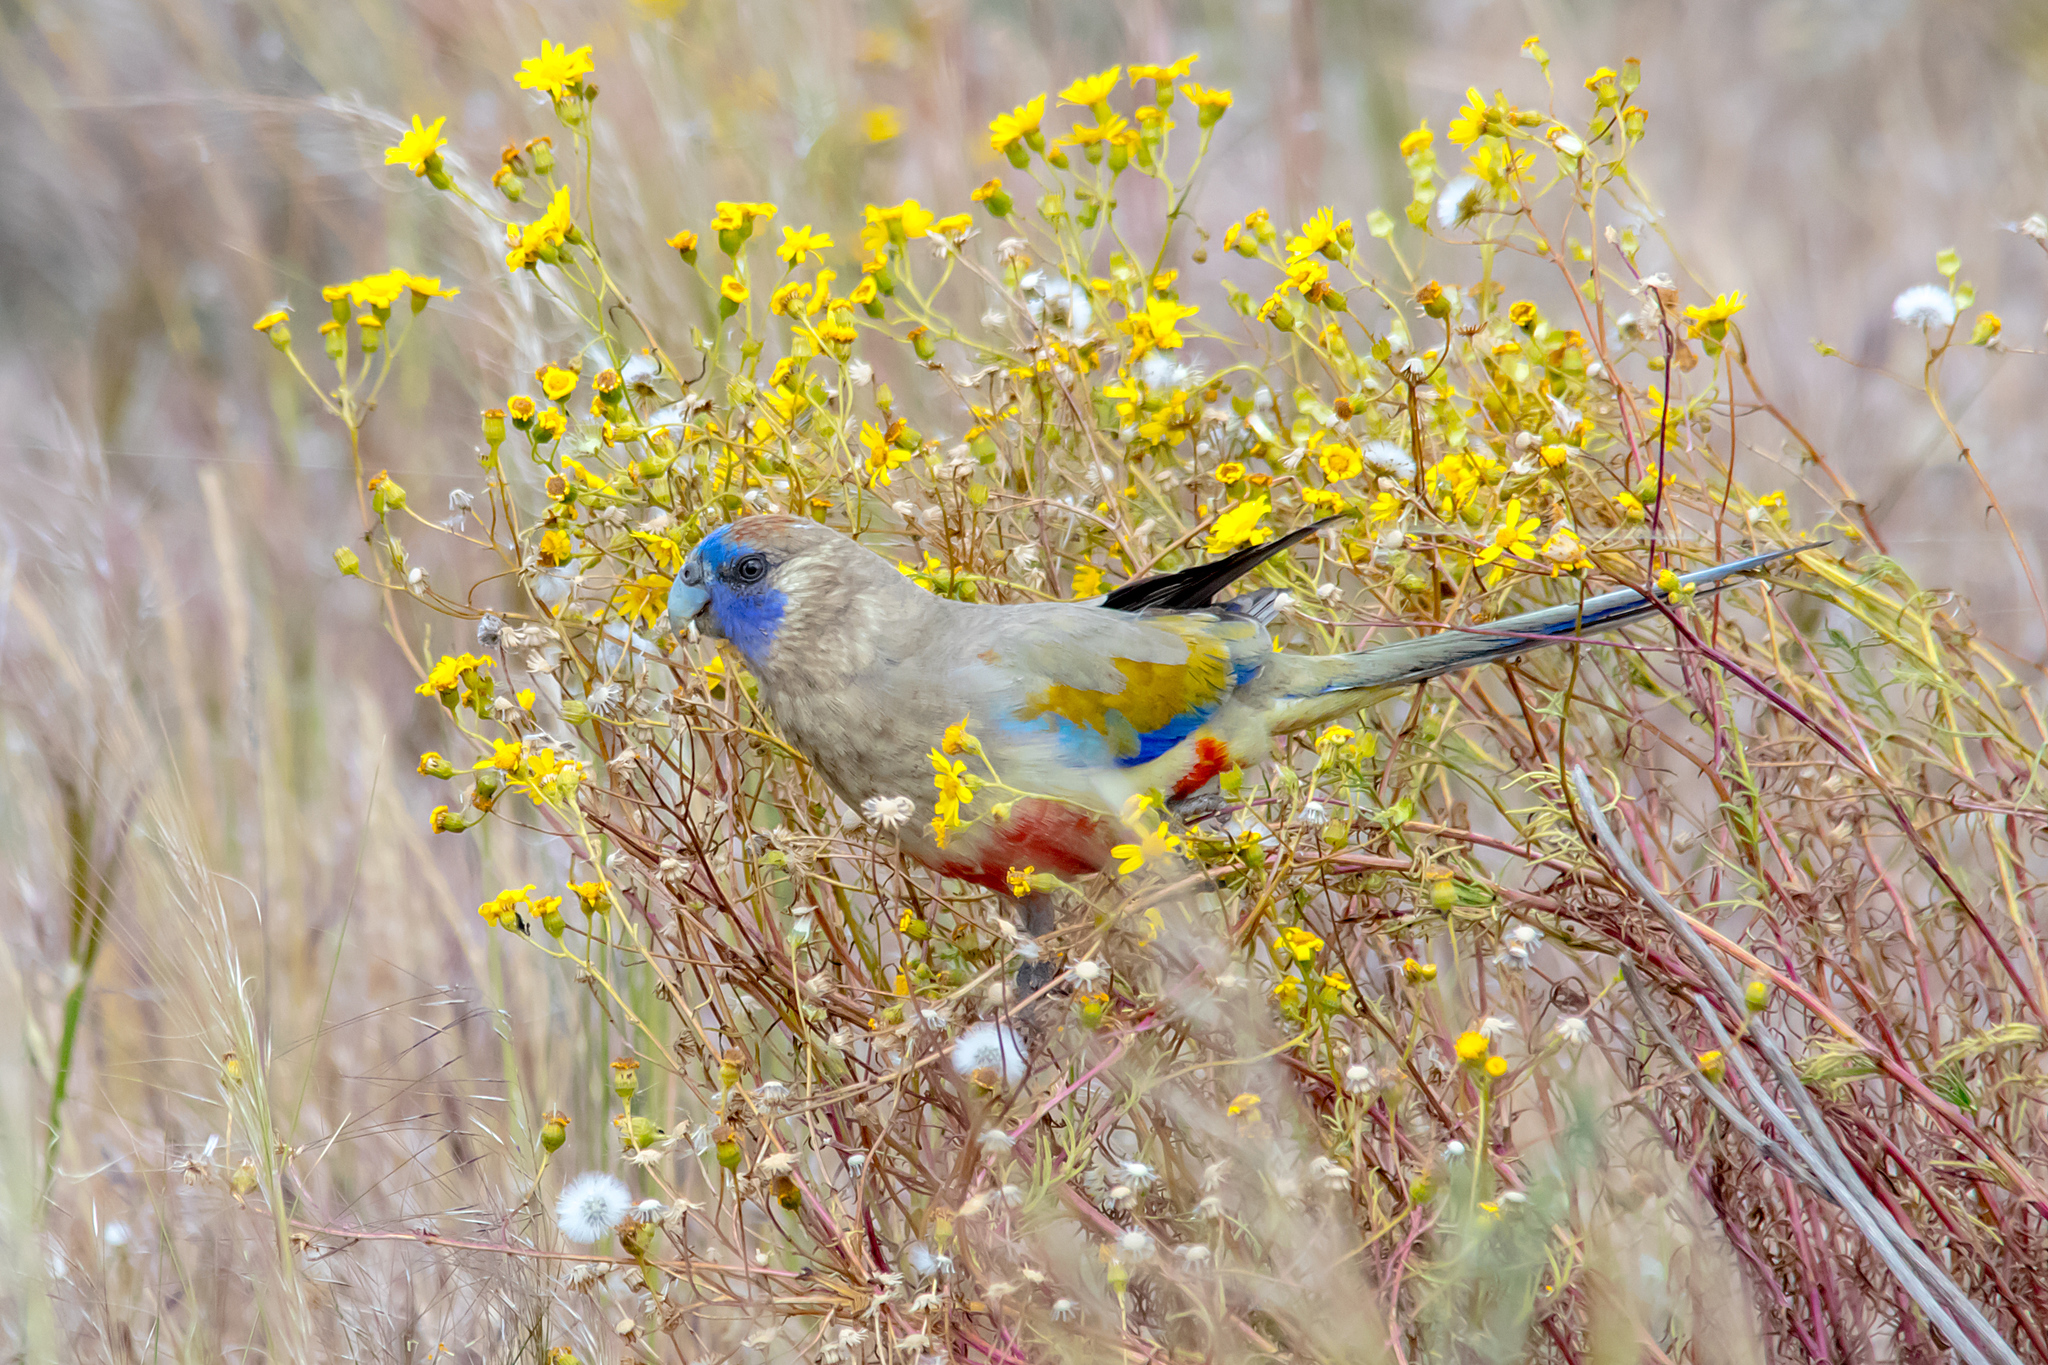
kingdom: Animalia
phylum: Chordata
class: Aves
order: Psittaciformes
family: Psittacidae
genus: Northiella
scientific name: Northiella haematogaster
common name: Bluebonnet
